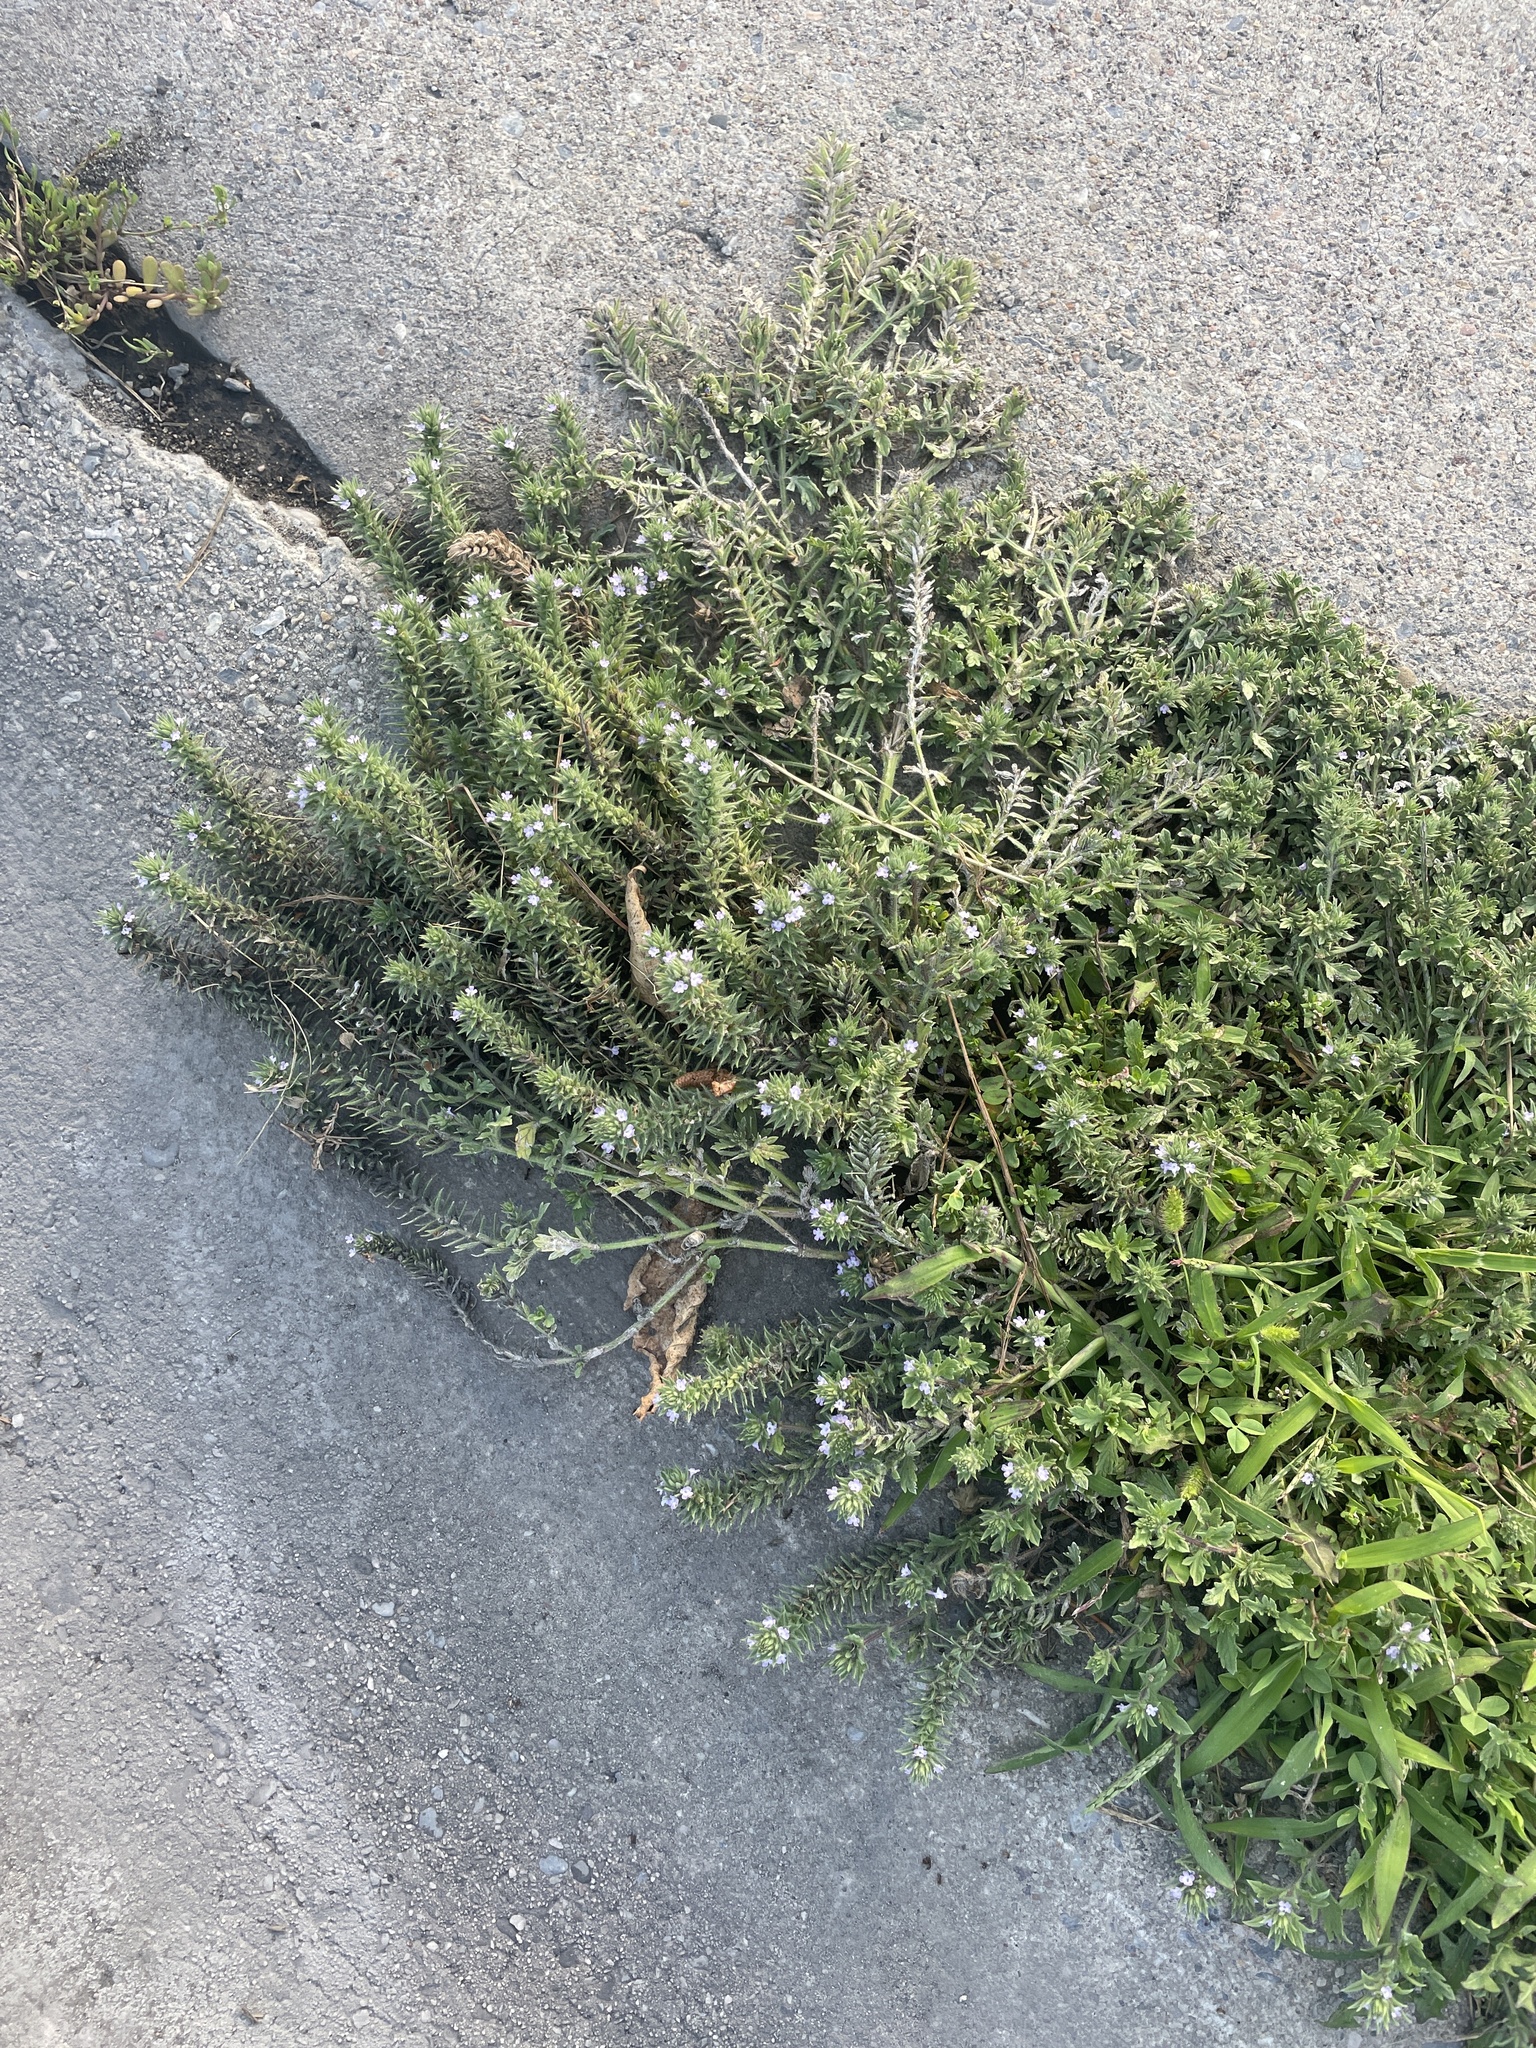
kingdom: Plantae
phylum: Tracheophyta
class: Magnoliopsida
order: Lamiales
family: Verbenaceae
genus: Verbena
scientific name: Verbena bracteata
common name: Bracted vervain
